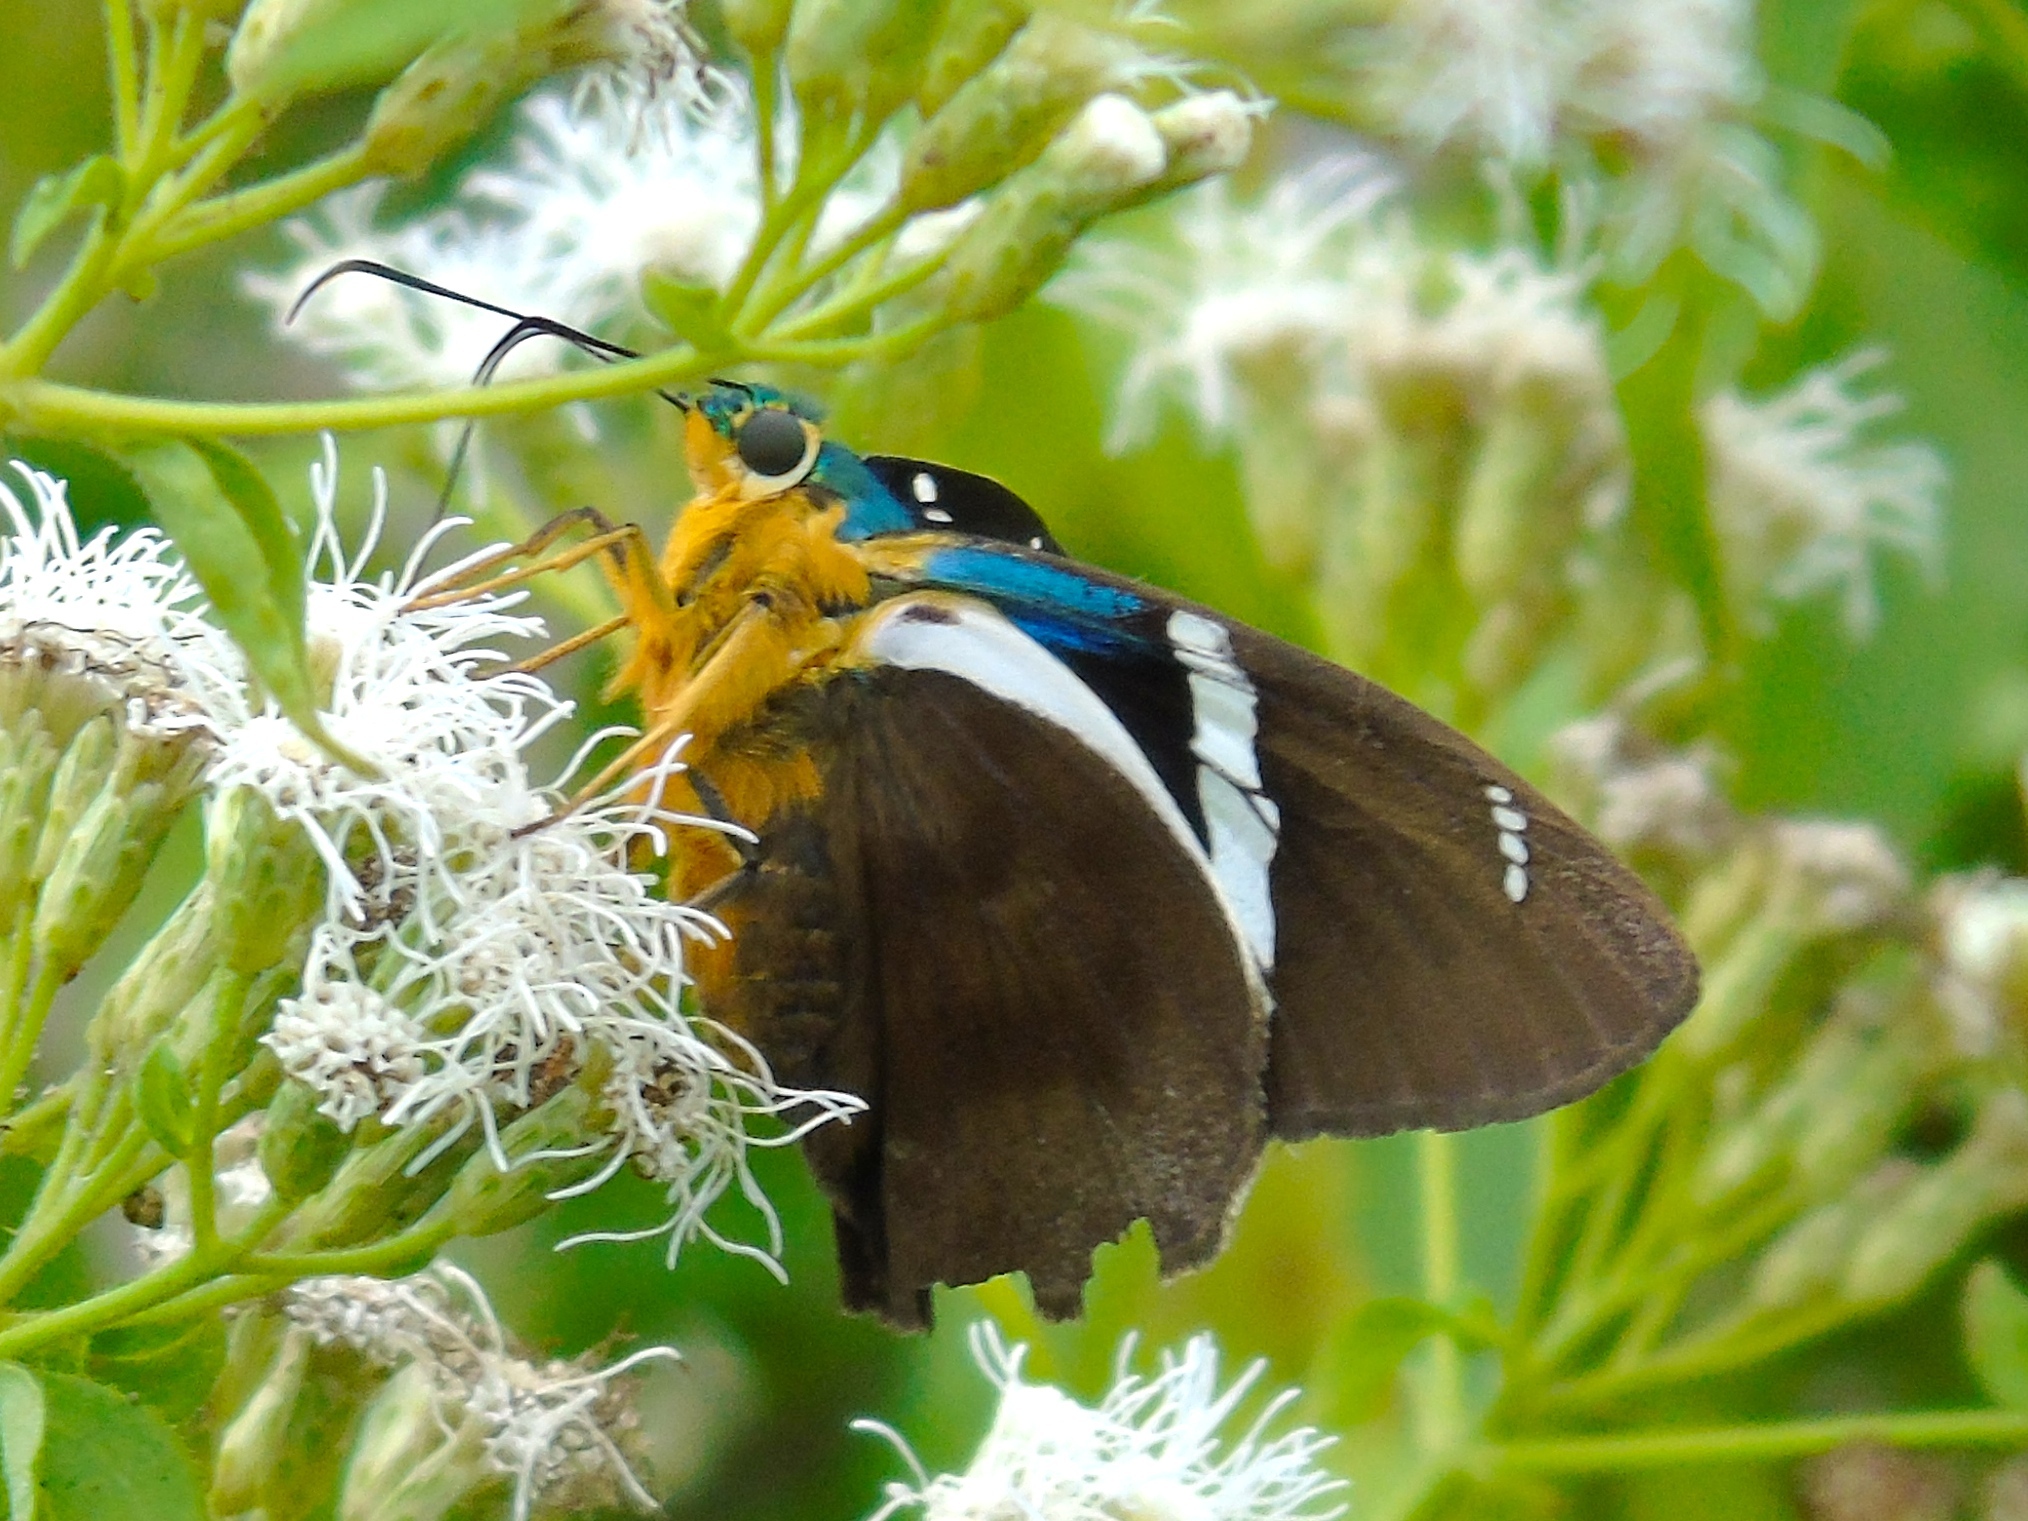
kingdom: Animalia
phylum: Arthropoda
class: Insecta
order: Lepidoptera
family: Hesperiidae
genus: Astraptes
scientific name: Astraptes fulgerator
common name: Two-barred flasher
